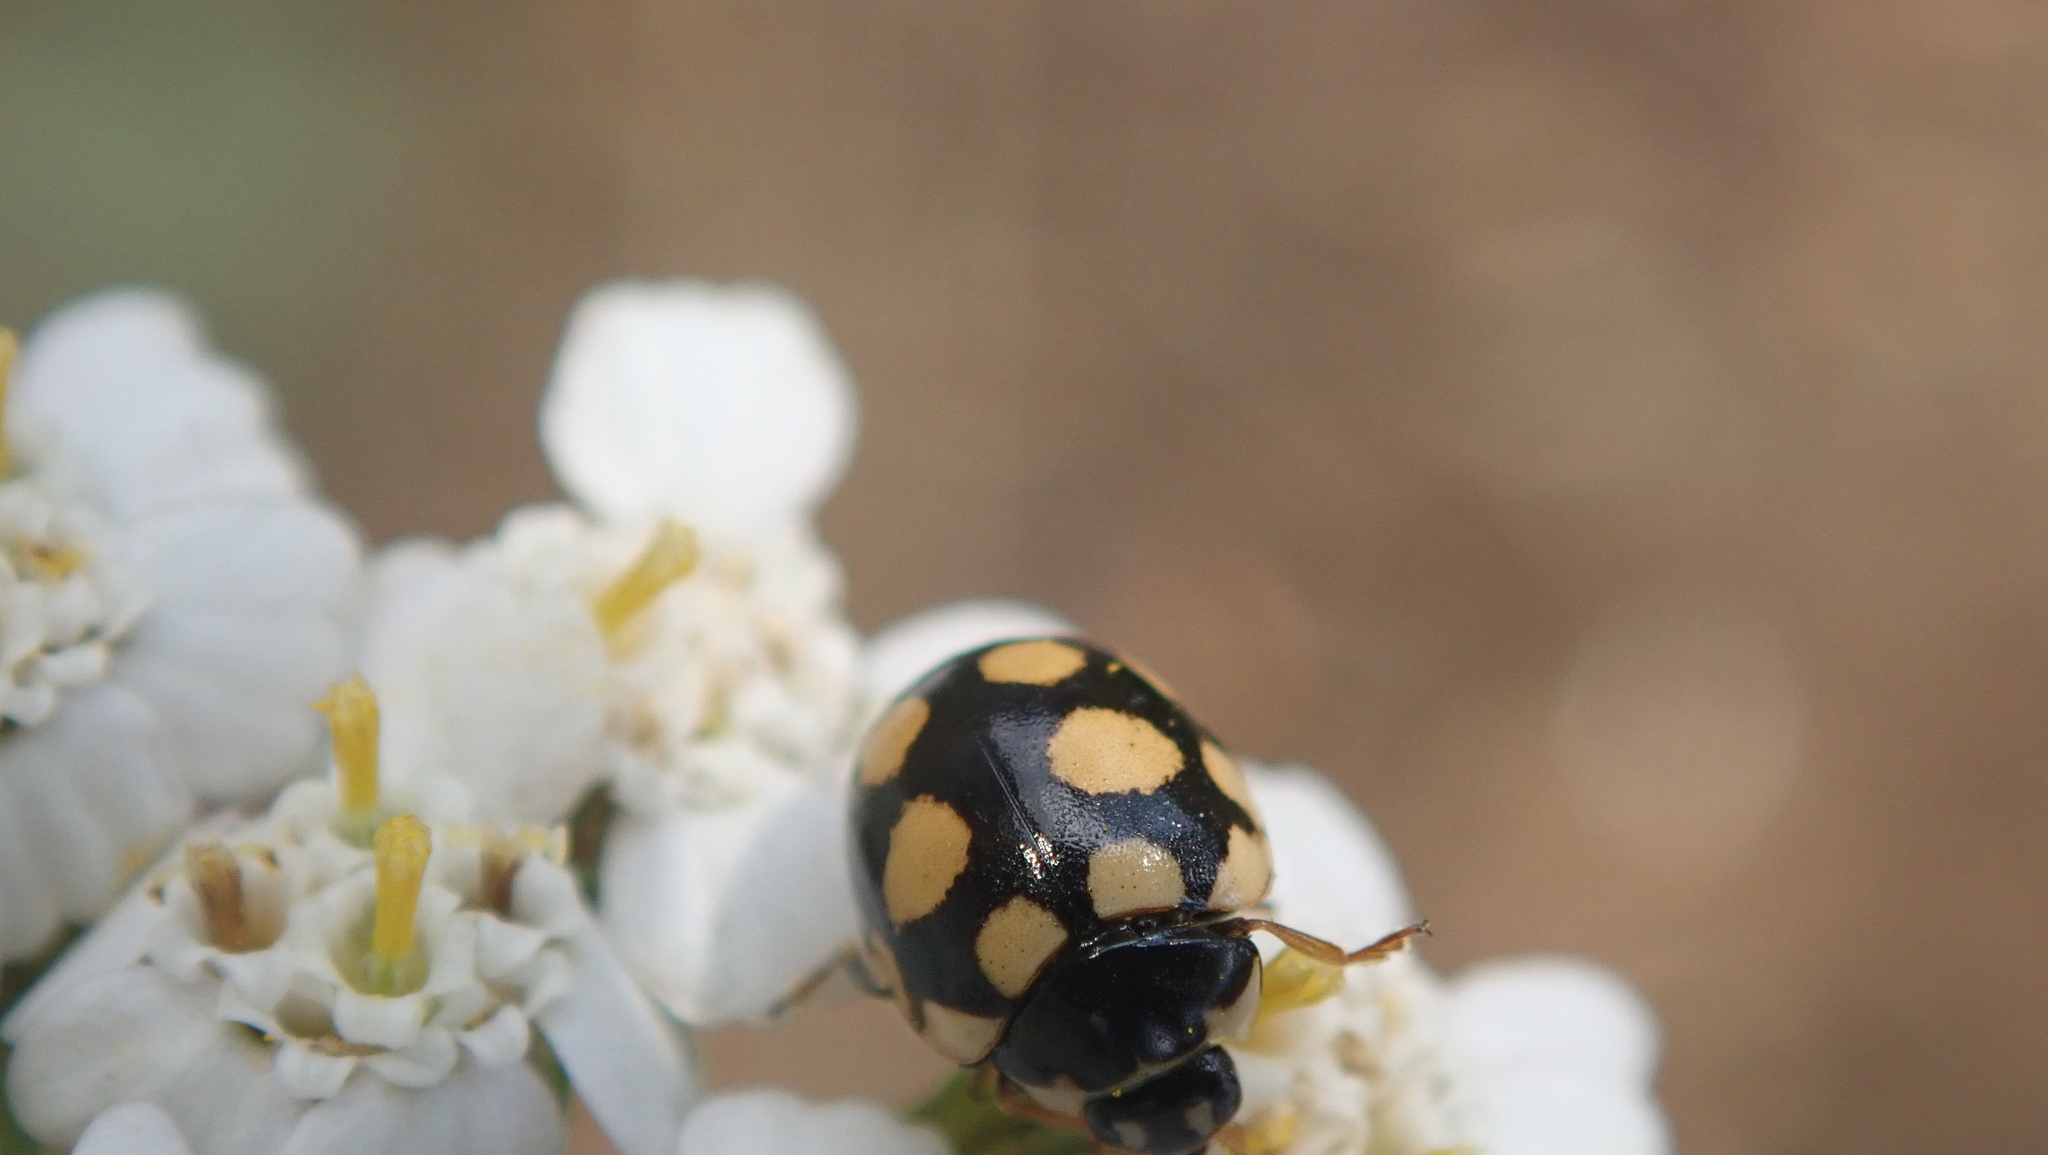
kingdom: Animalia
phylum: Arthropoda
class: Insecta
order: Coleoptera
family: Coccinellidae
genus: Coccinula
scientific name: Coccinula quatuordecimpustulata
